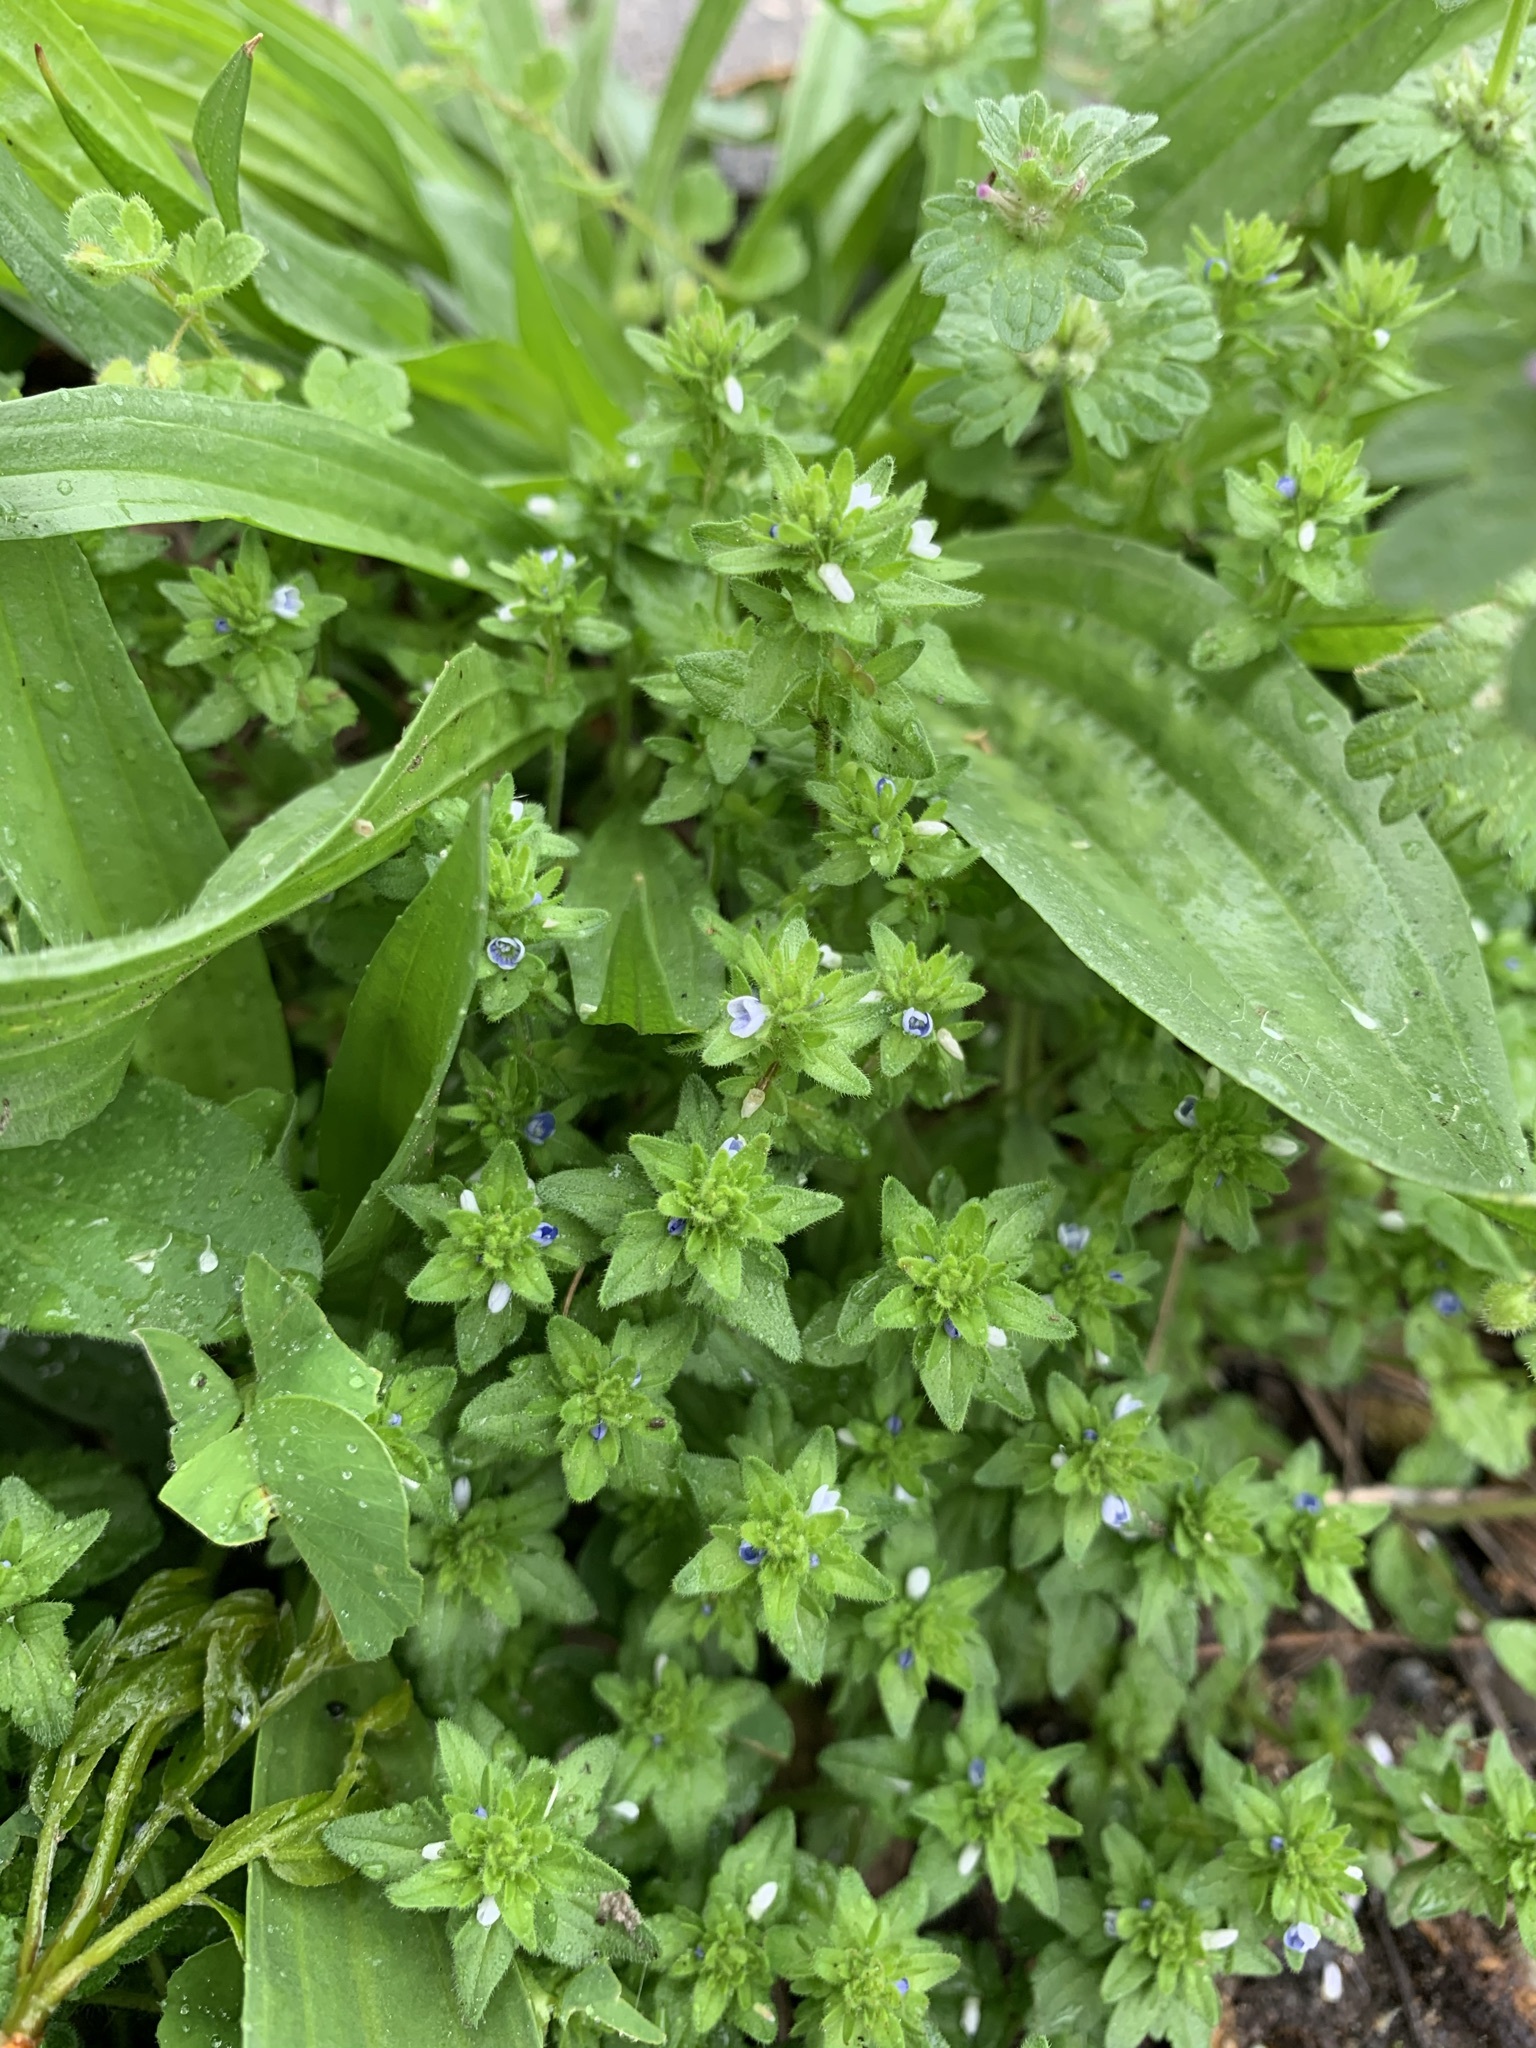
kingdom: Plantae
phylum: Tracheophyta
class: Magnoliopsida
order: Lamiales
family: Plantaginaceae
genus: Veronica
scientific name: Veronica arvensis
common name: Corn speedwell
